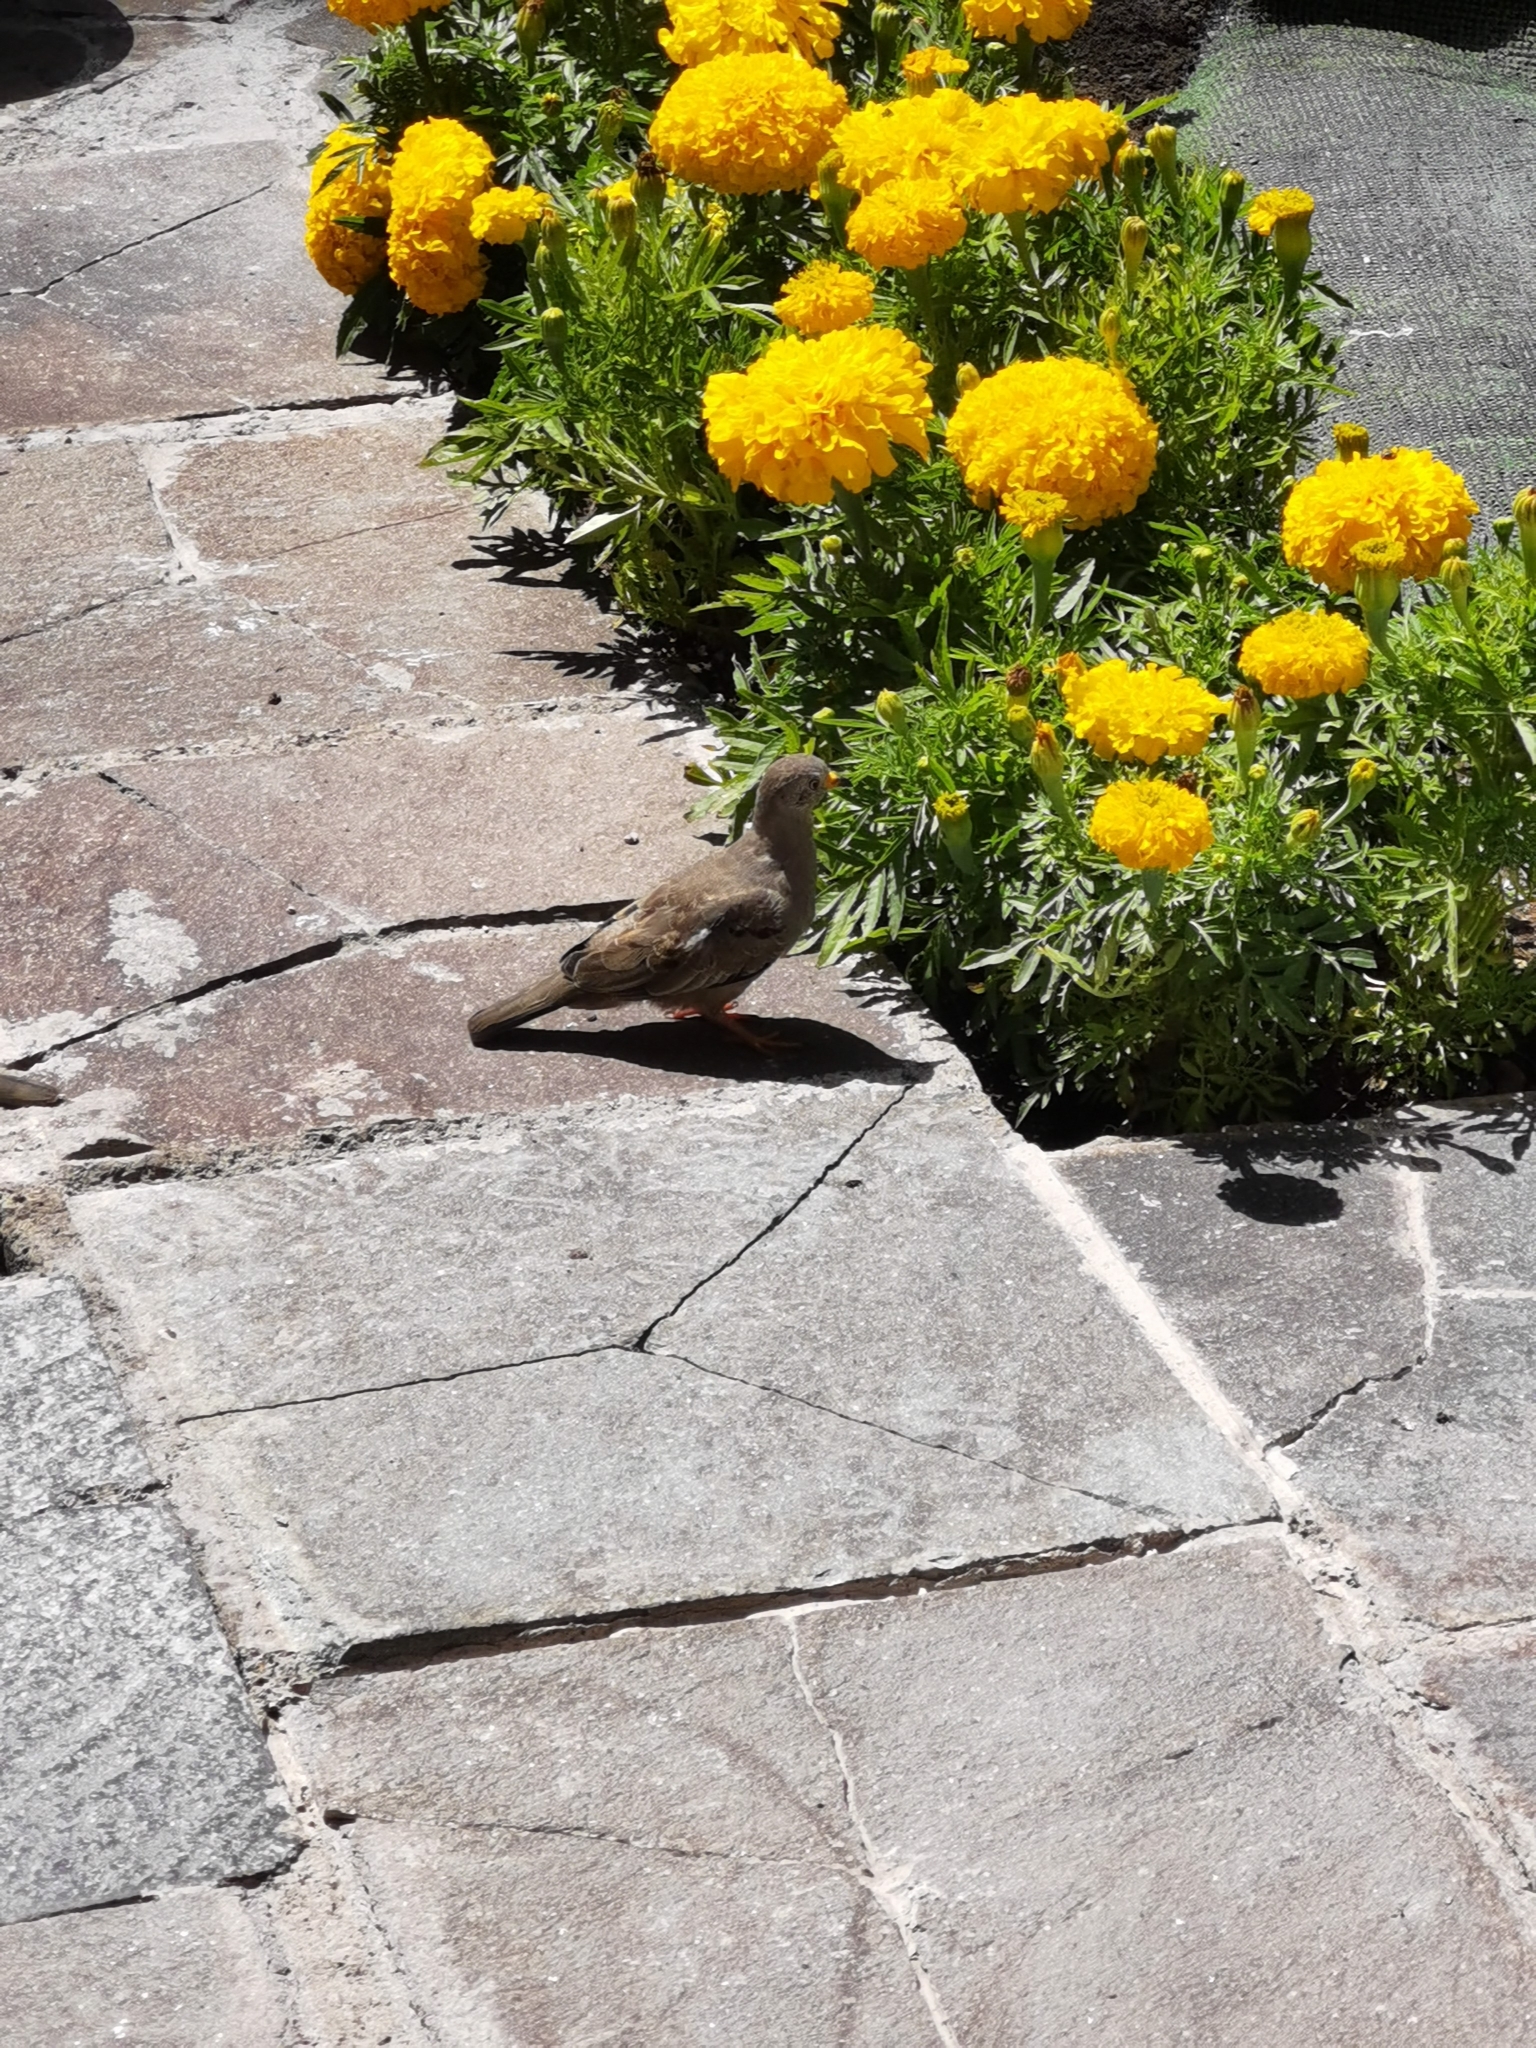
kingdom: Animalia
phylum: Chordata
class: Aves
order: Columbiformes
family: Columbidae
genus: Columbina
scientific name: Columbina cruziana
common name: Croaking ground dove
